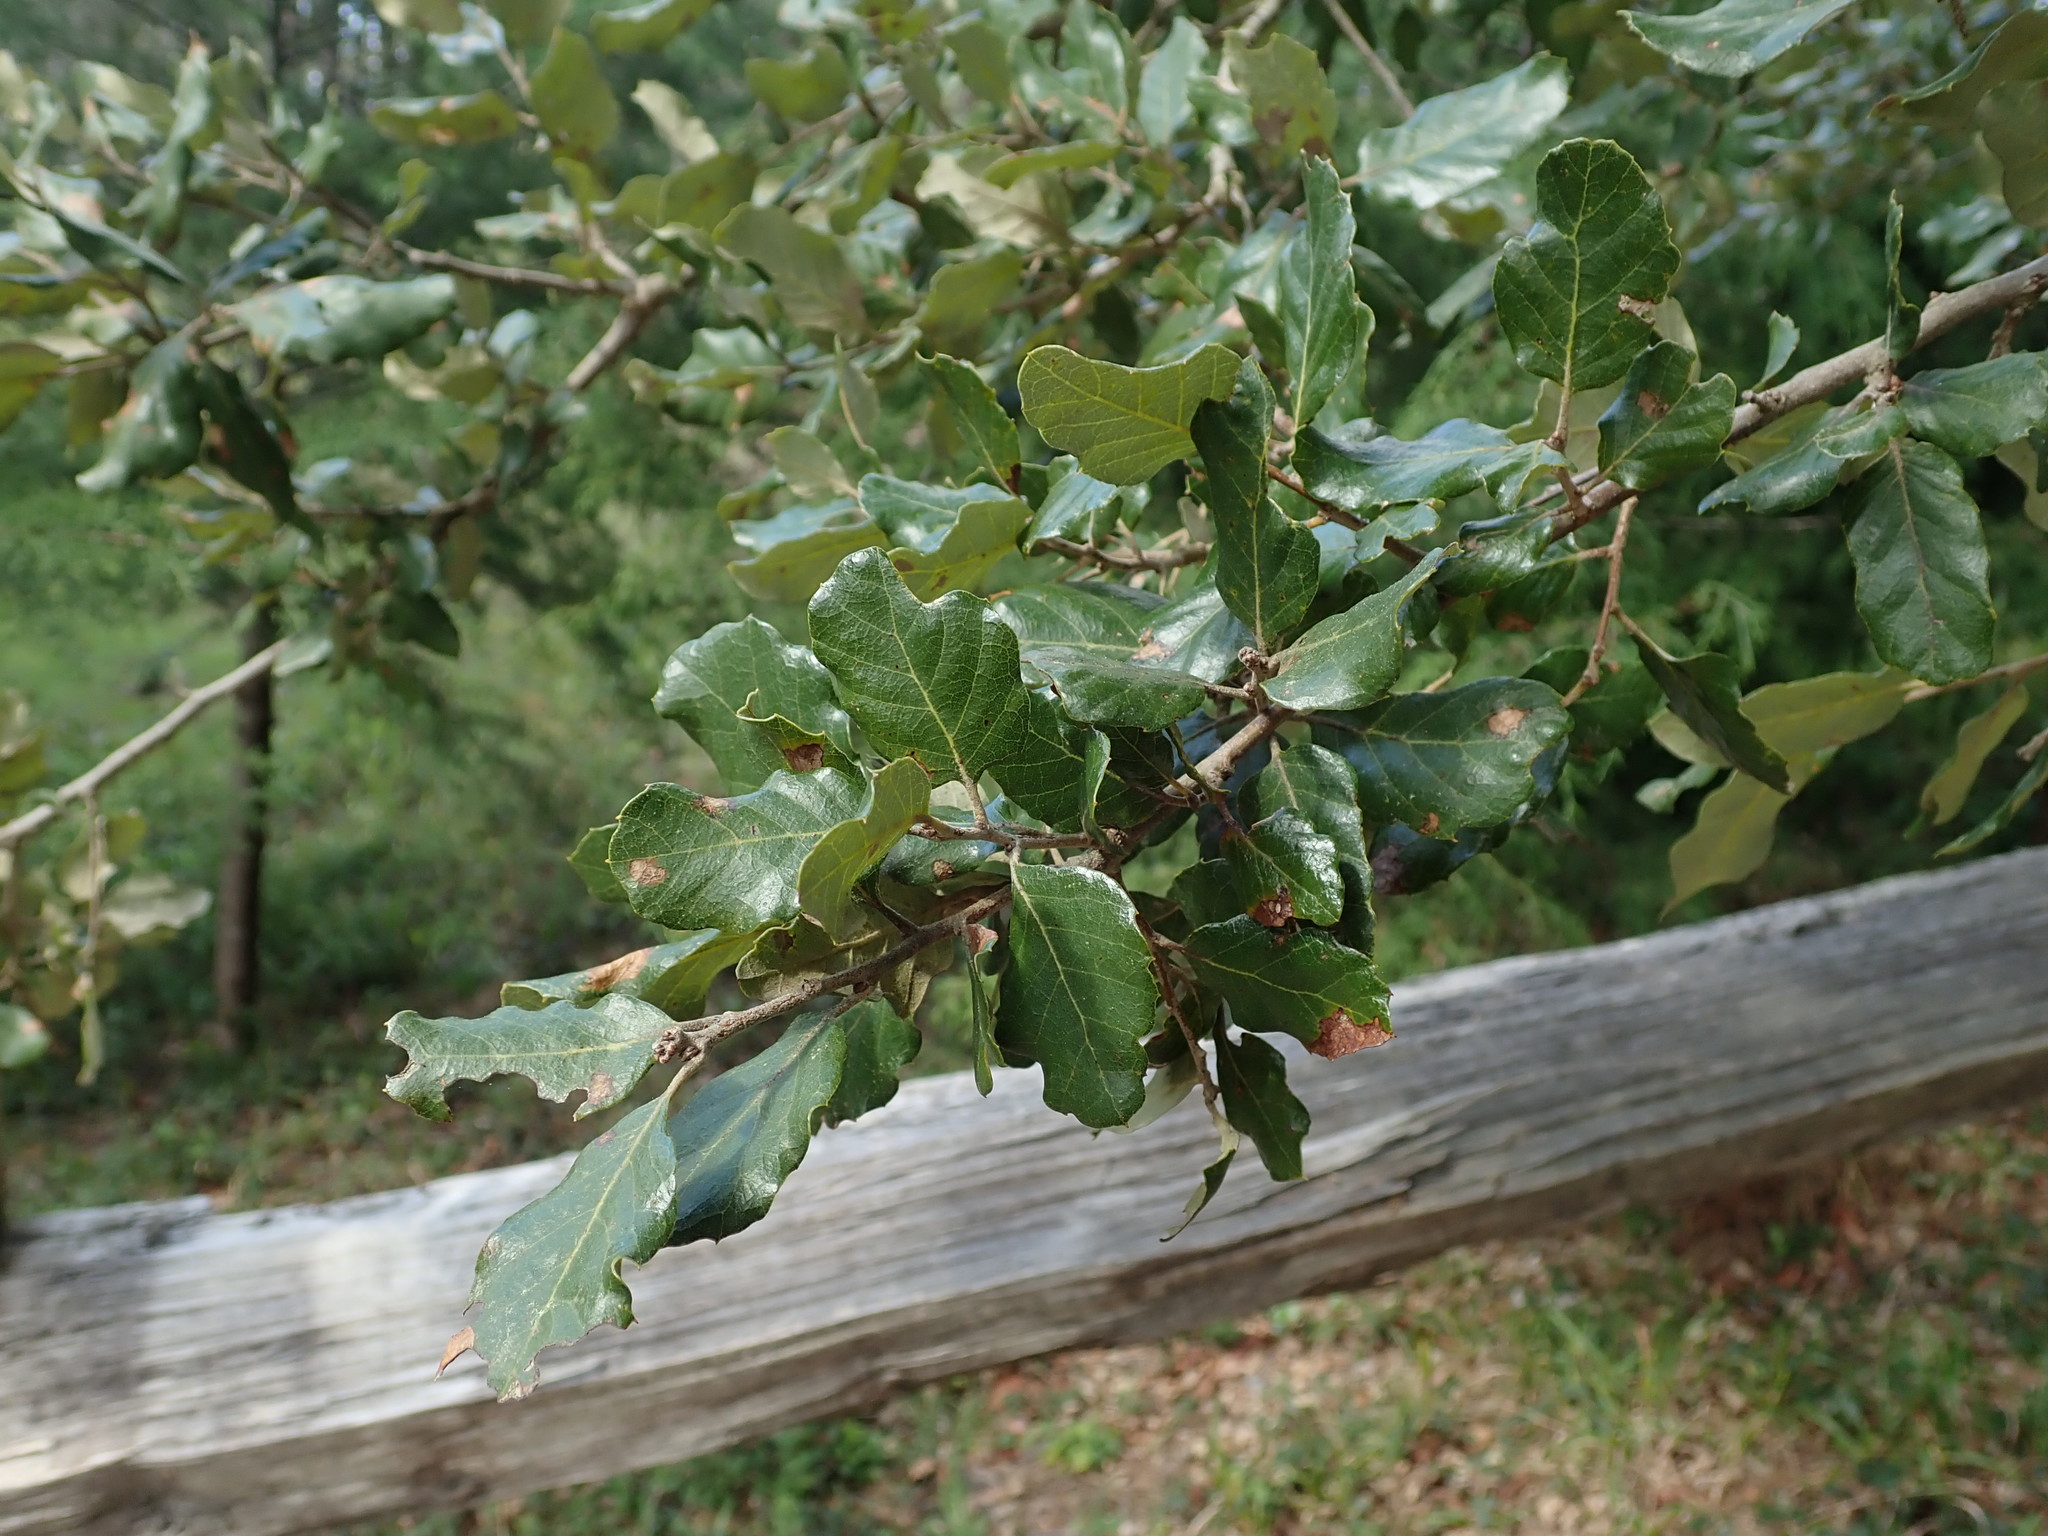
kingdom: Plantae
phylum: Tracheophyta
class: Magnoliopsida
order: Fagales
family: Fagaceae
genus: Quercus
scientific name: Quercus suber
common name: Cork oak
